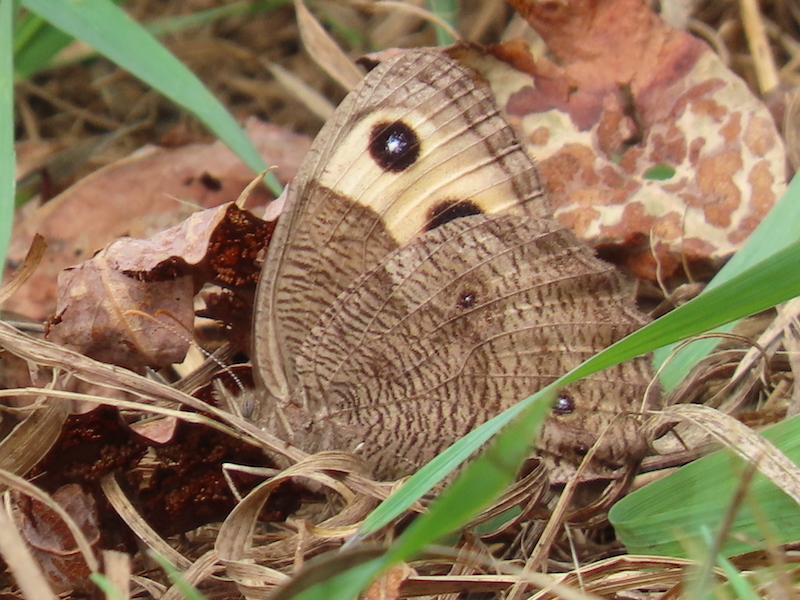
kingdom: Animalia
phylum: Arthropoda
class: Insecta
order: Lepidoptera
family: Nymphalidae
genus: Cercyonis
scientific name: Cercyonis pegala
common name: Common wood-nymph
